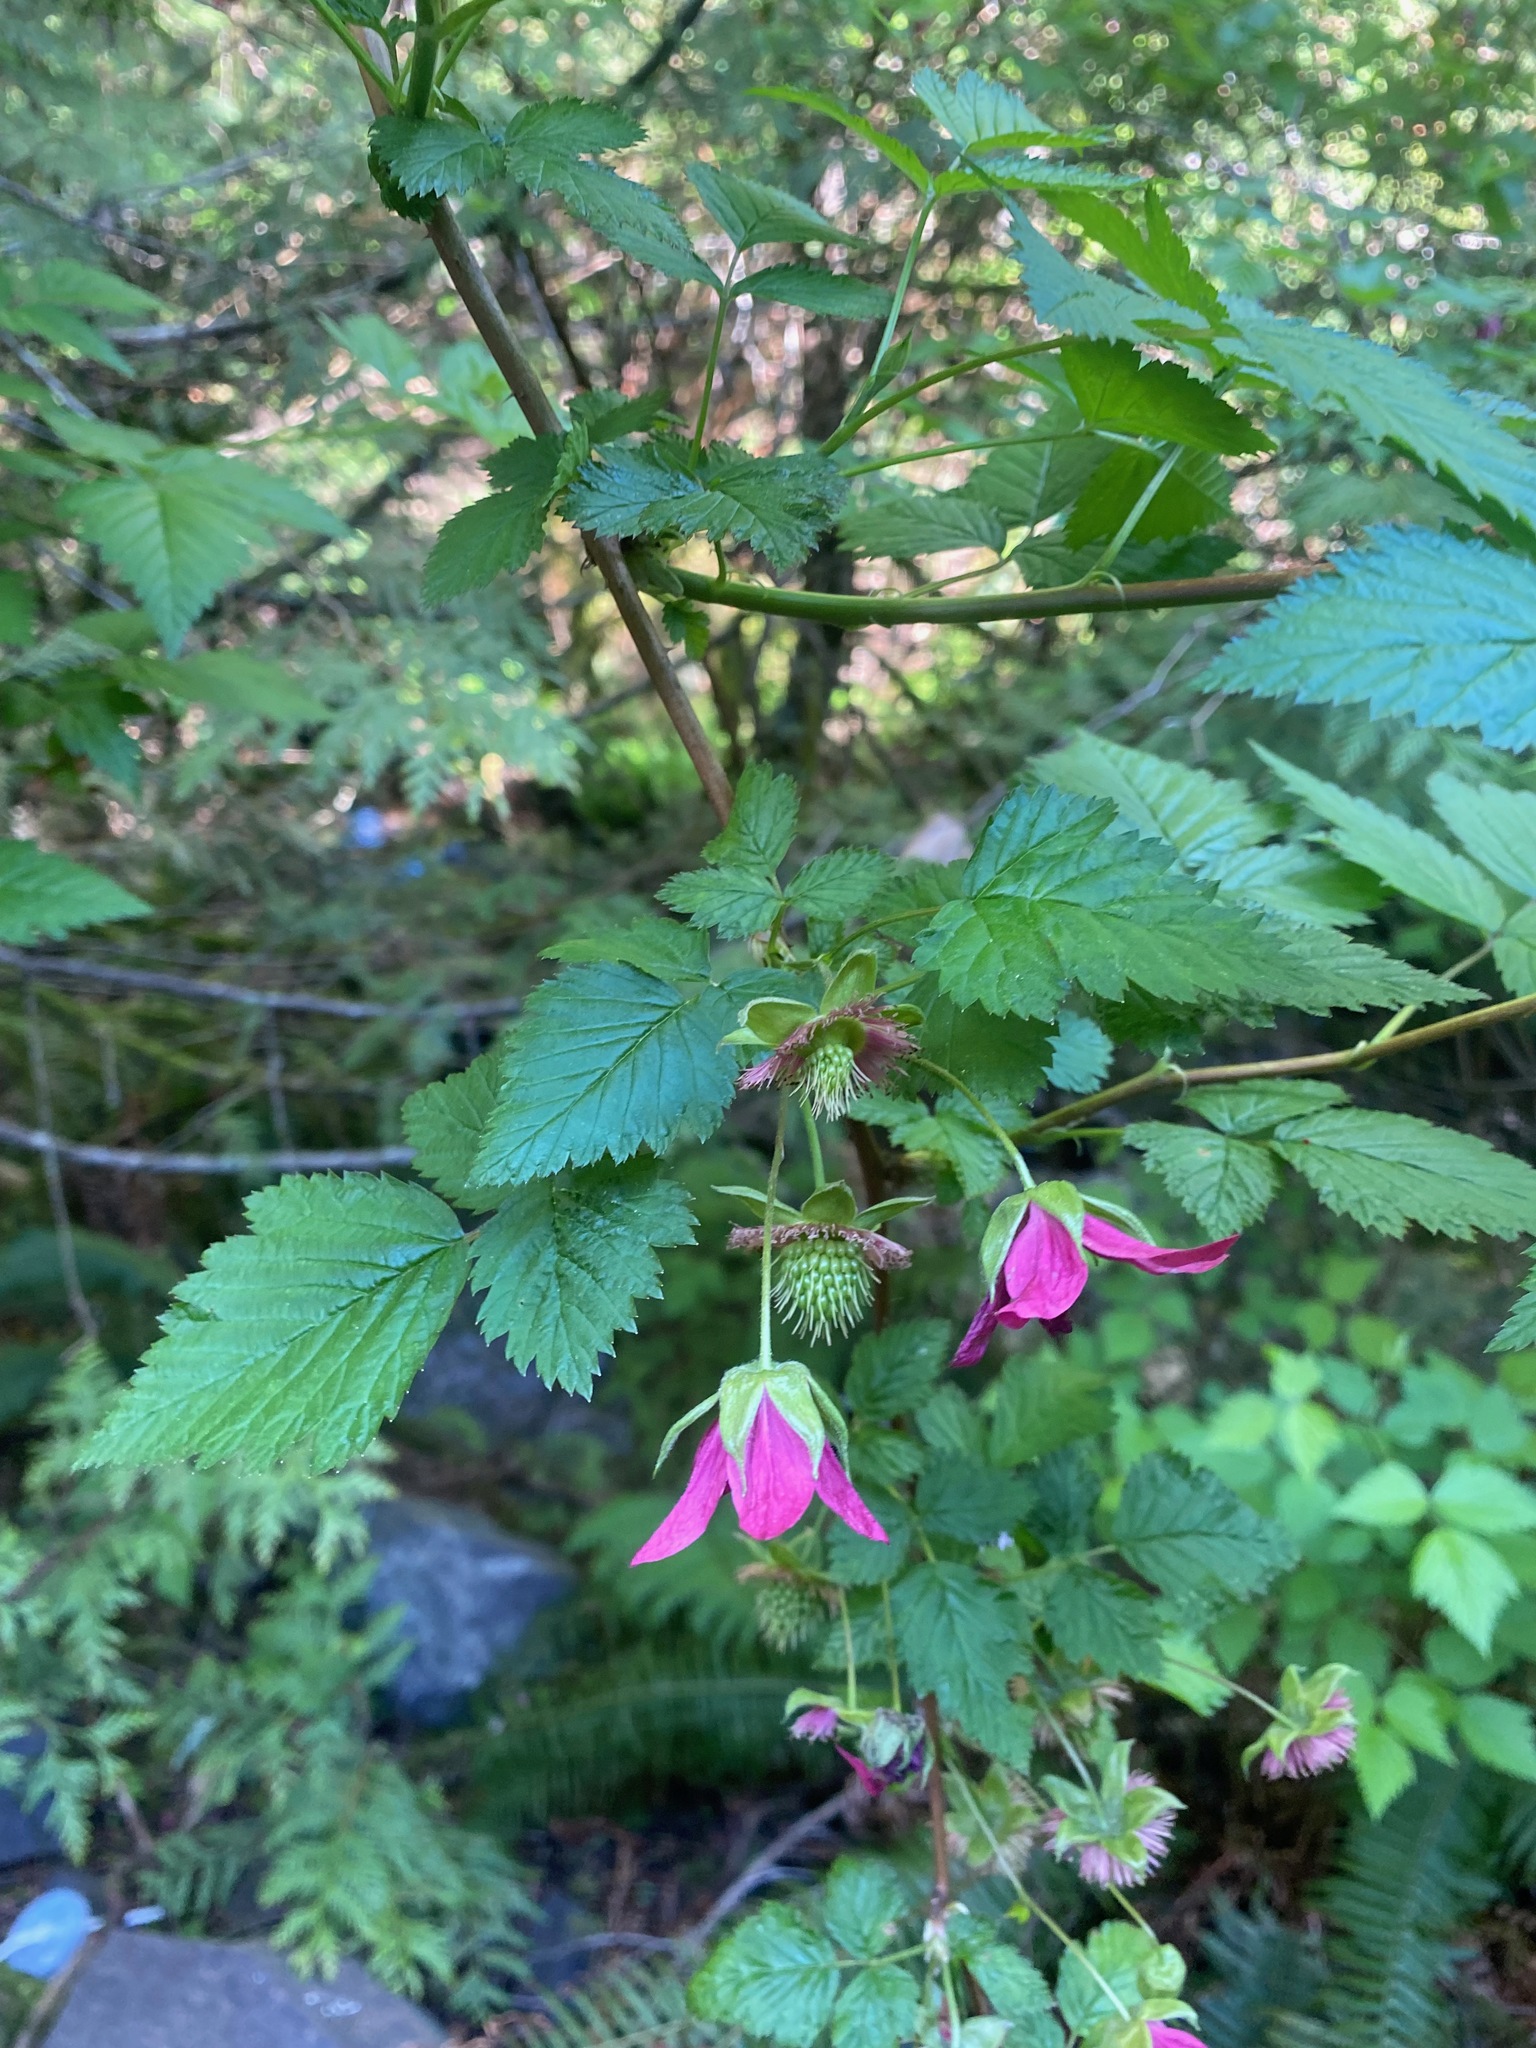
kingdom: Plantae
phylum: Tracheophyta
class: Magnoliopsida
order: Rosales
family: Rosaceae
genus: Rubus
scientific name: Rubus spectabilis
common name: Salmonberry
